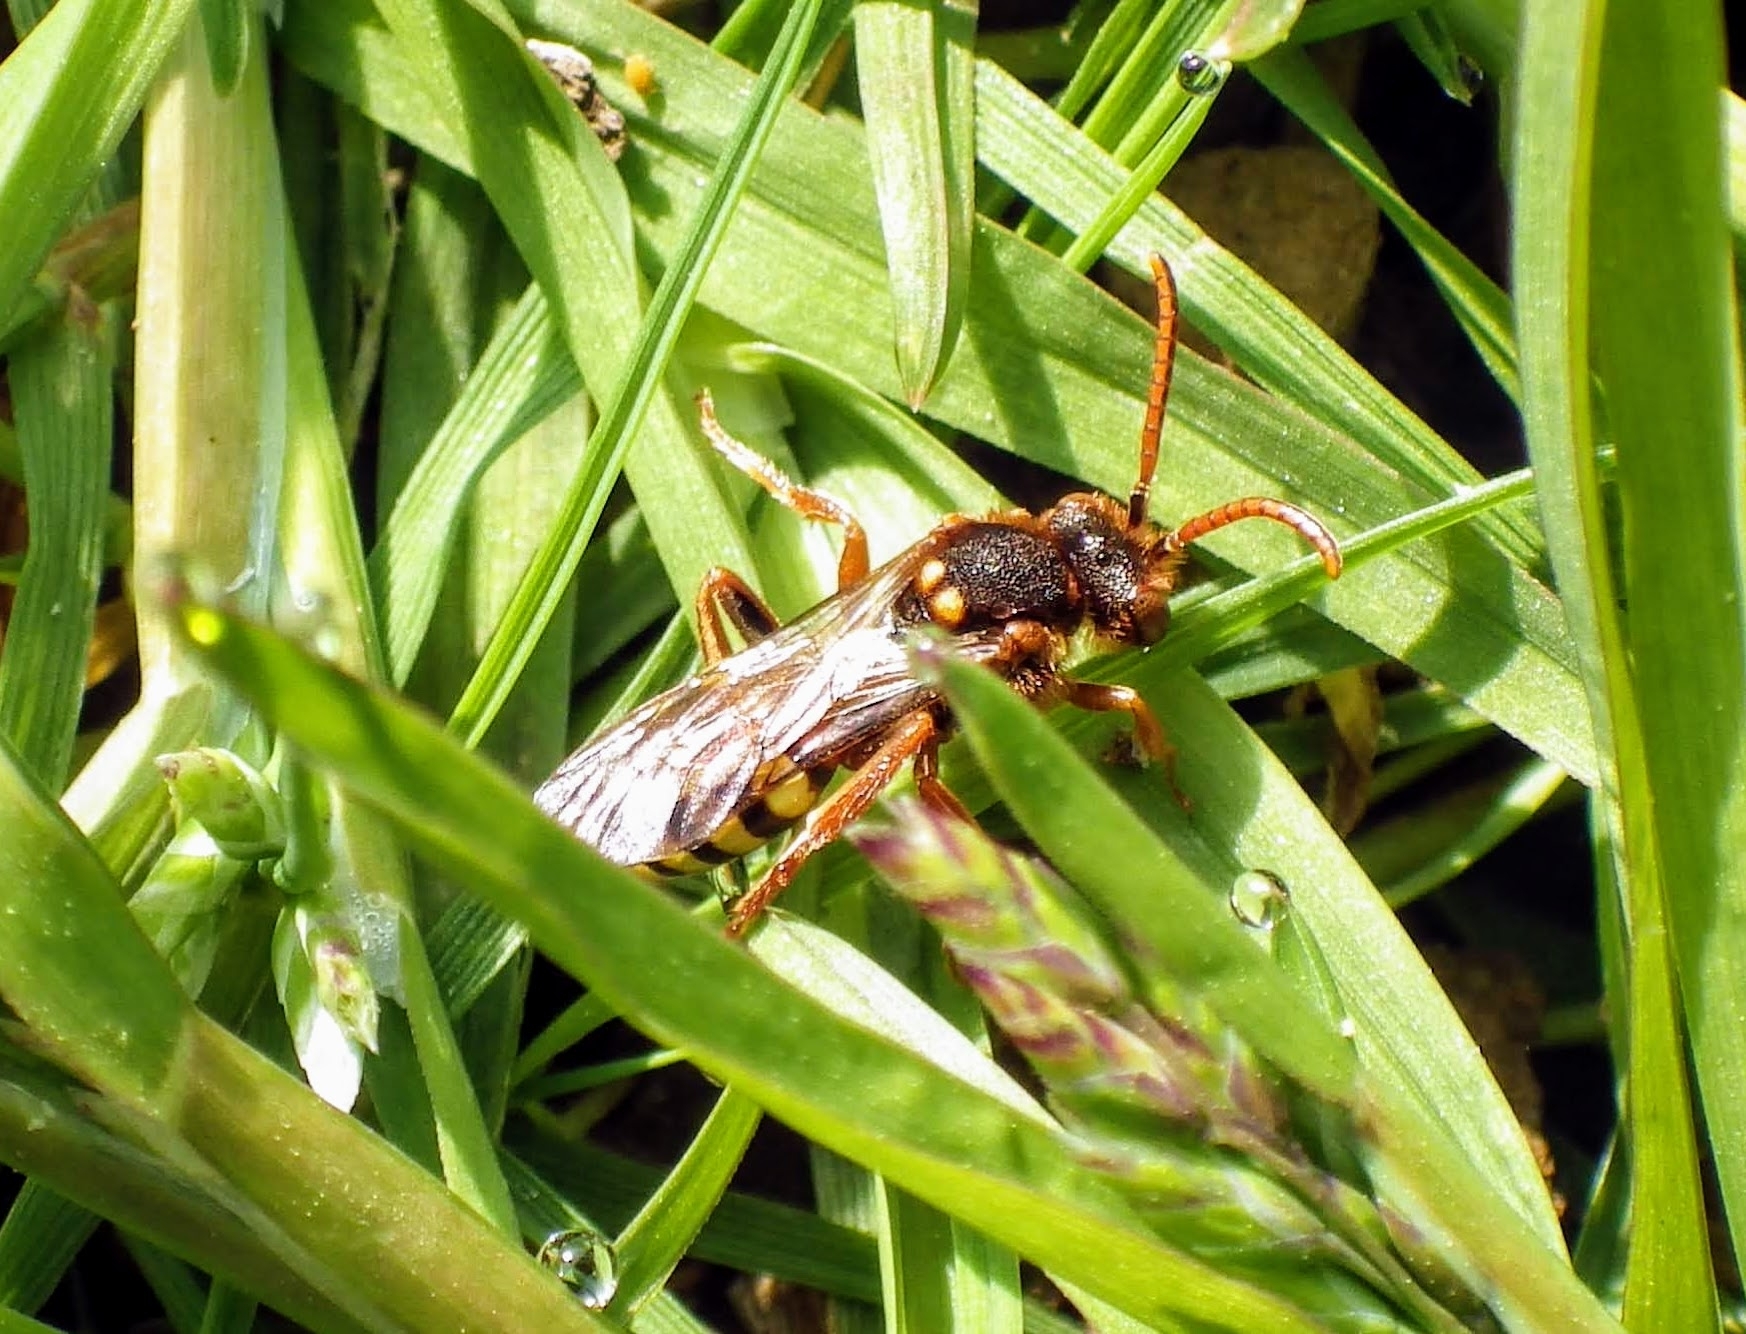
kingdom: Animalia
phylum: Arthropoda
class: Insecta
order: Hymenoptera
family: Apidae
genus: Nomada
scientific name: Nomada lathburiana
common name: Lathbury's nomad bee
